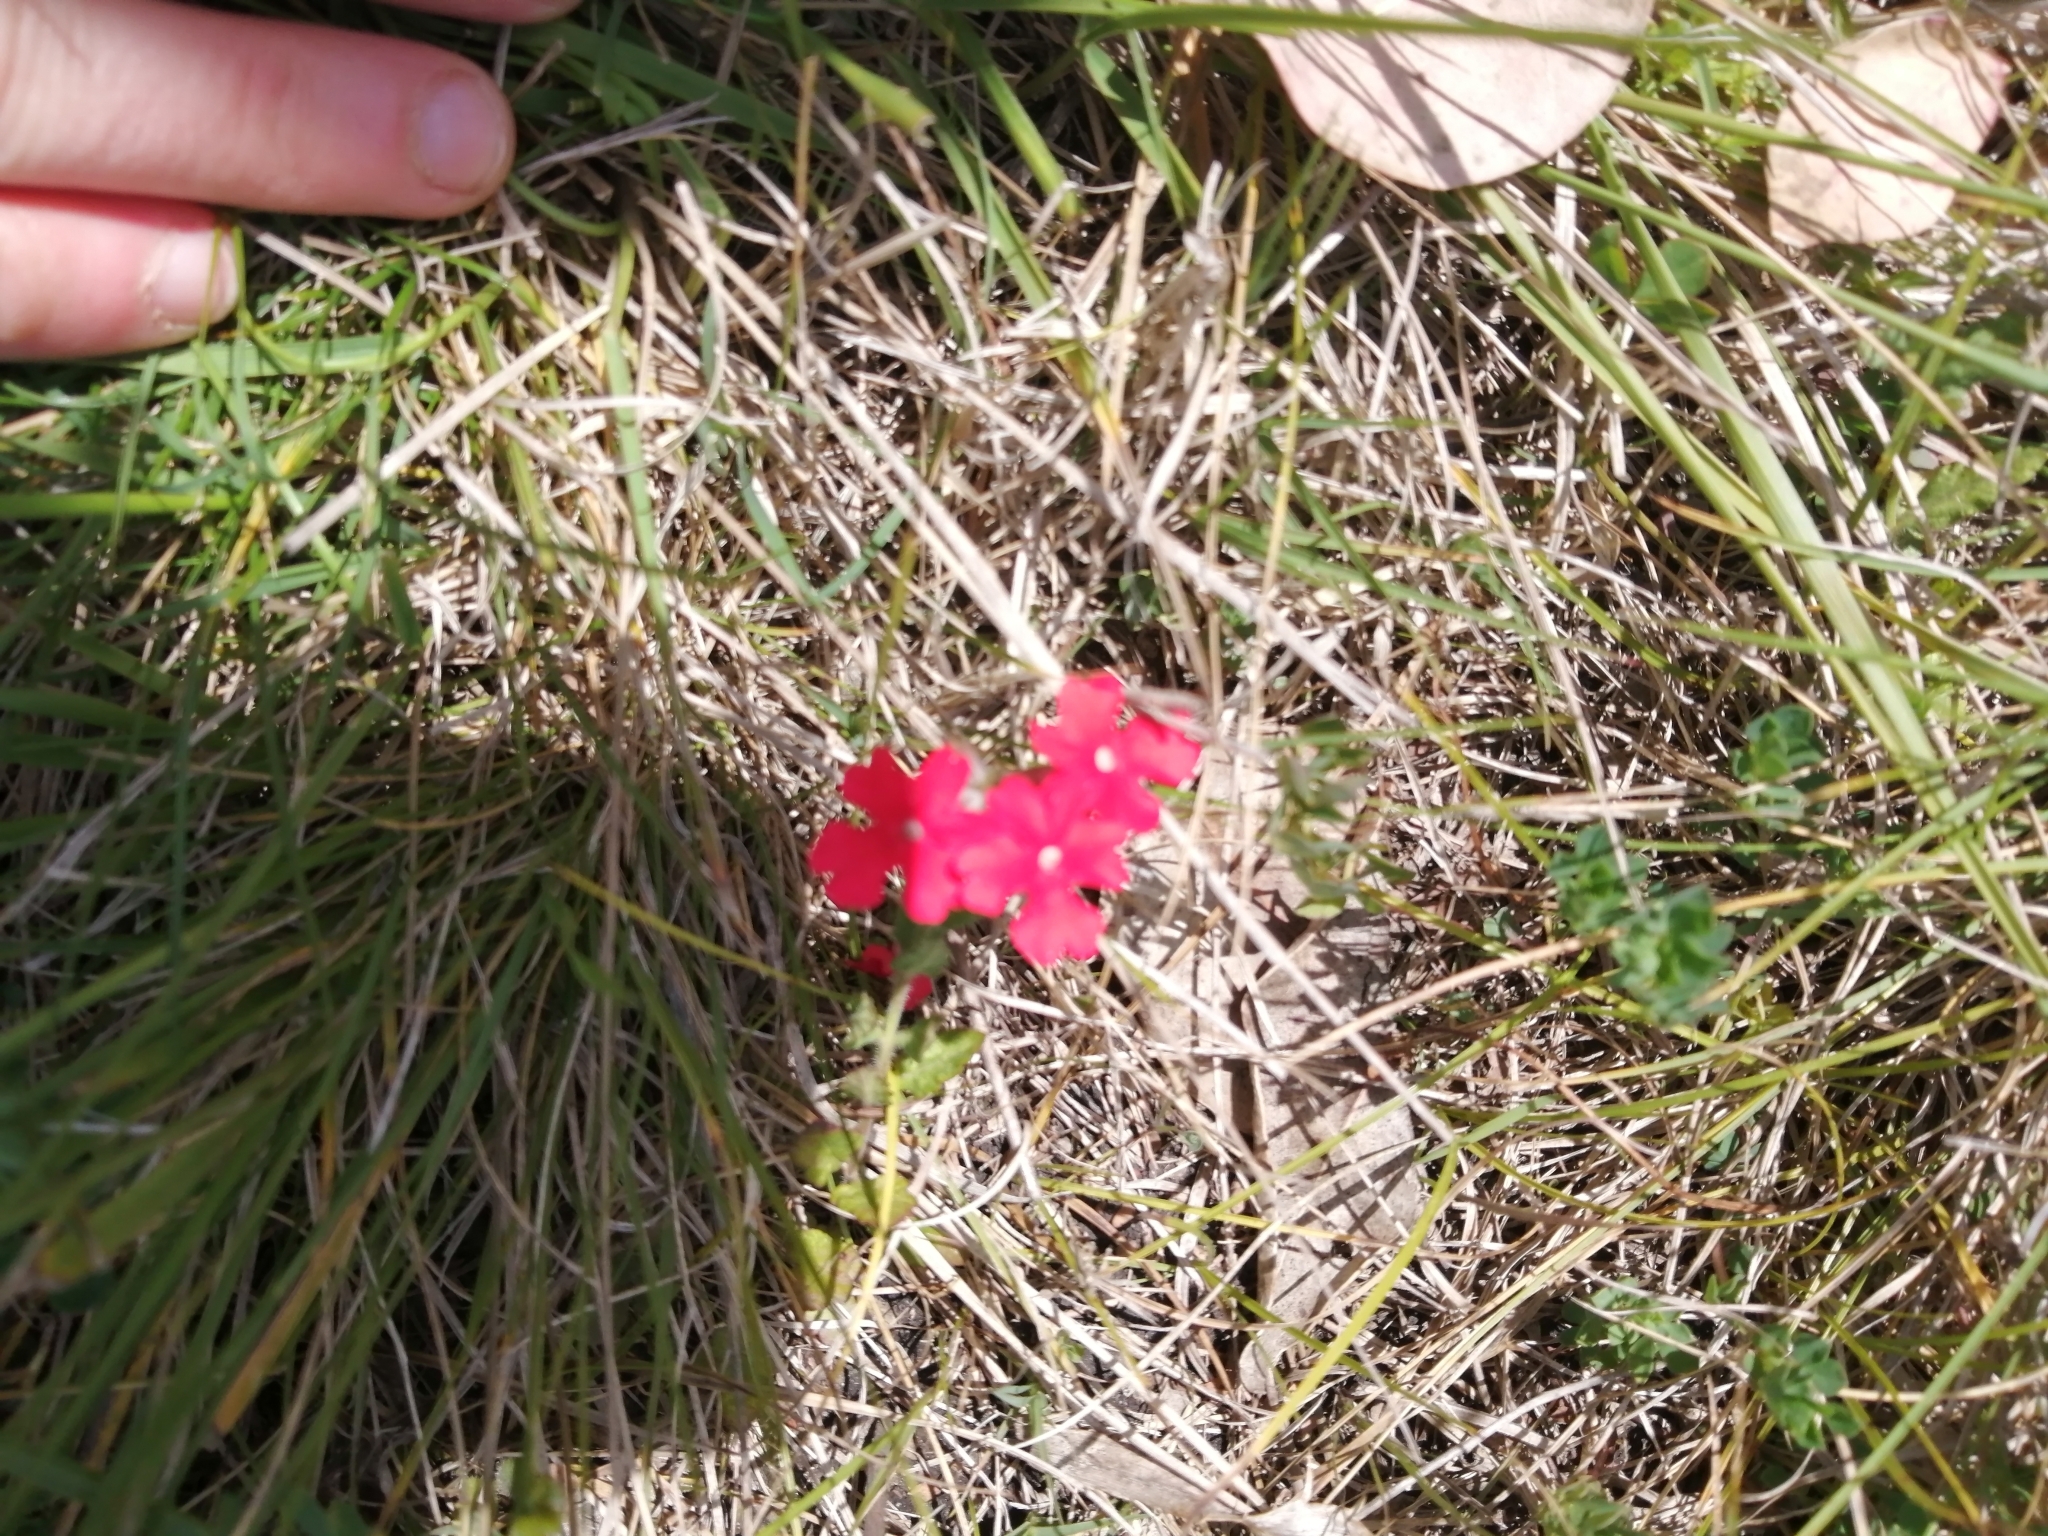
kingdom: Plantae
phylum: Tracheophyta
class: Magnoliopsida
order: Lamiales
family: Verbenaceae
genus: Verbena
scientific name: Verbena peruviana
